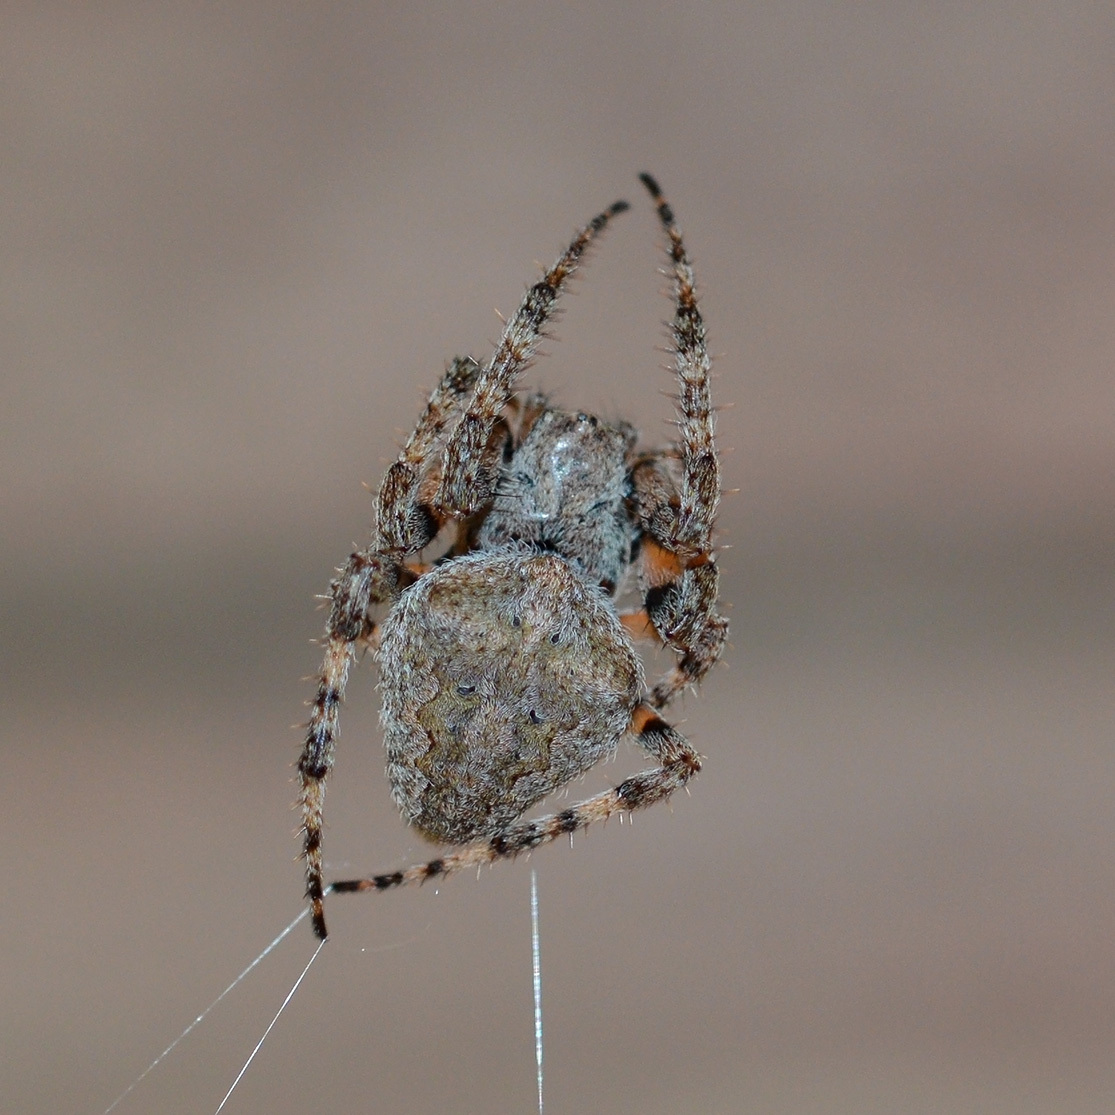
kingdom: Animalia
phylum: Arthropoda
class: Arachnida
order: Araneae
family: Araneidae
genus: Neoscona
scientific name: Neoscona subfusca
